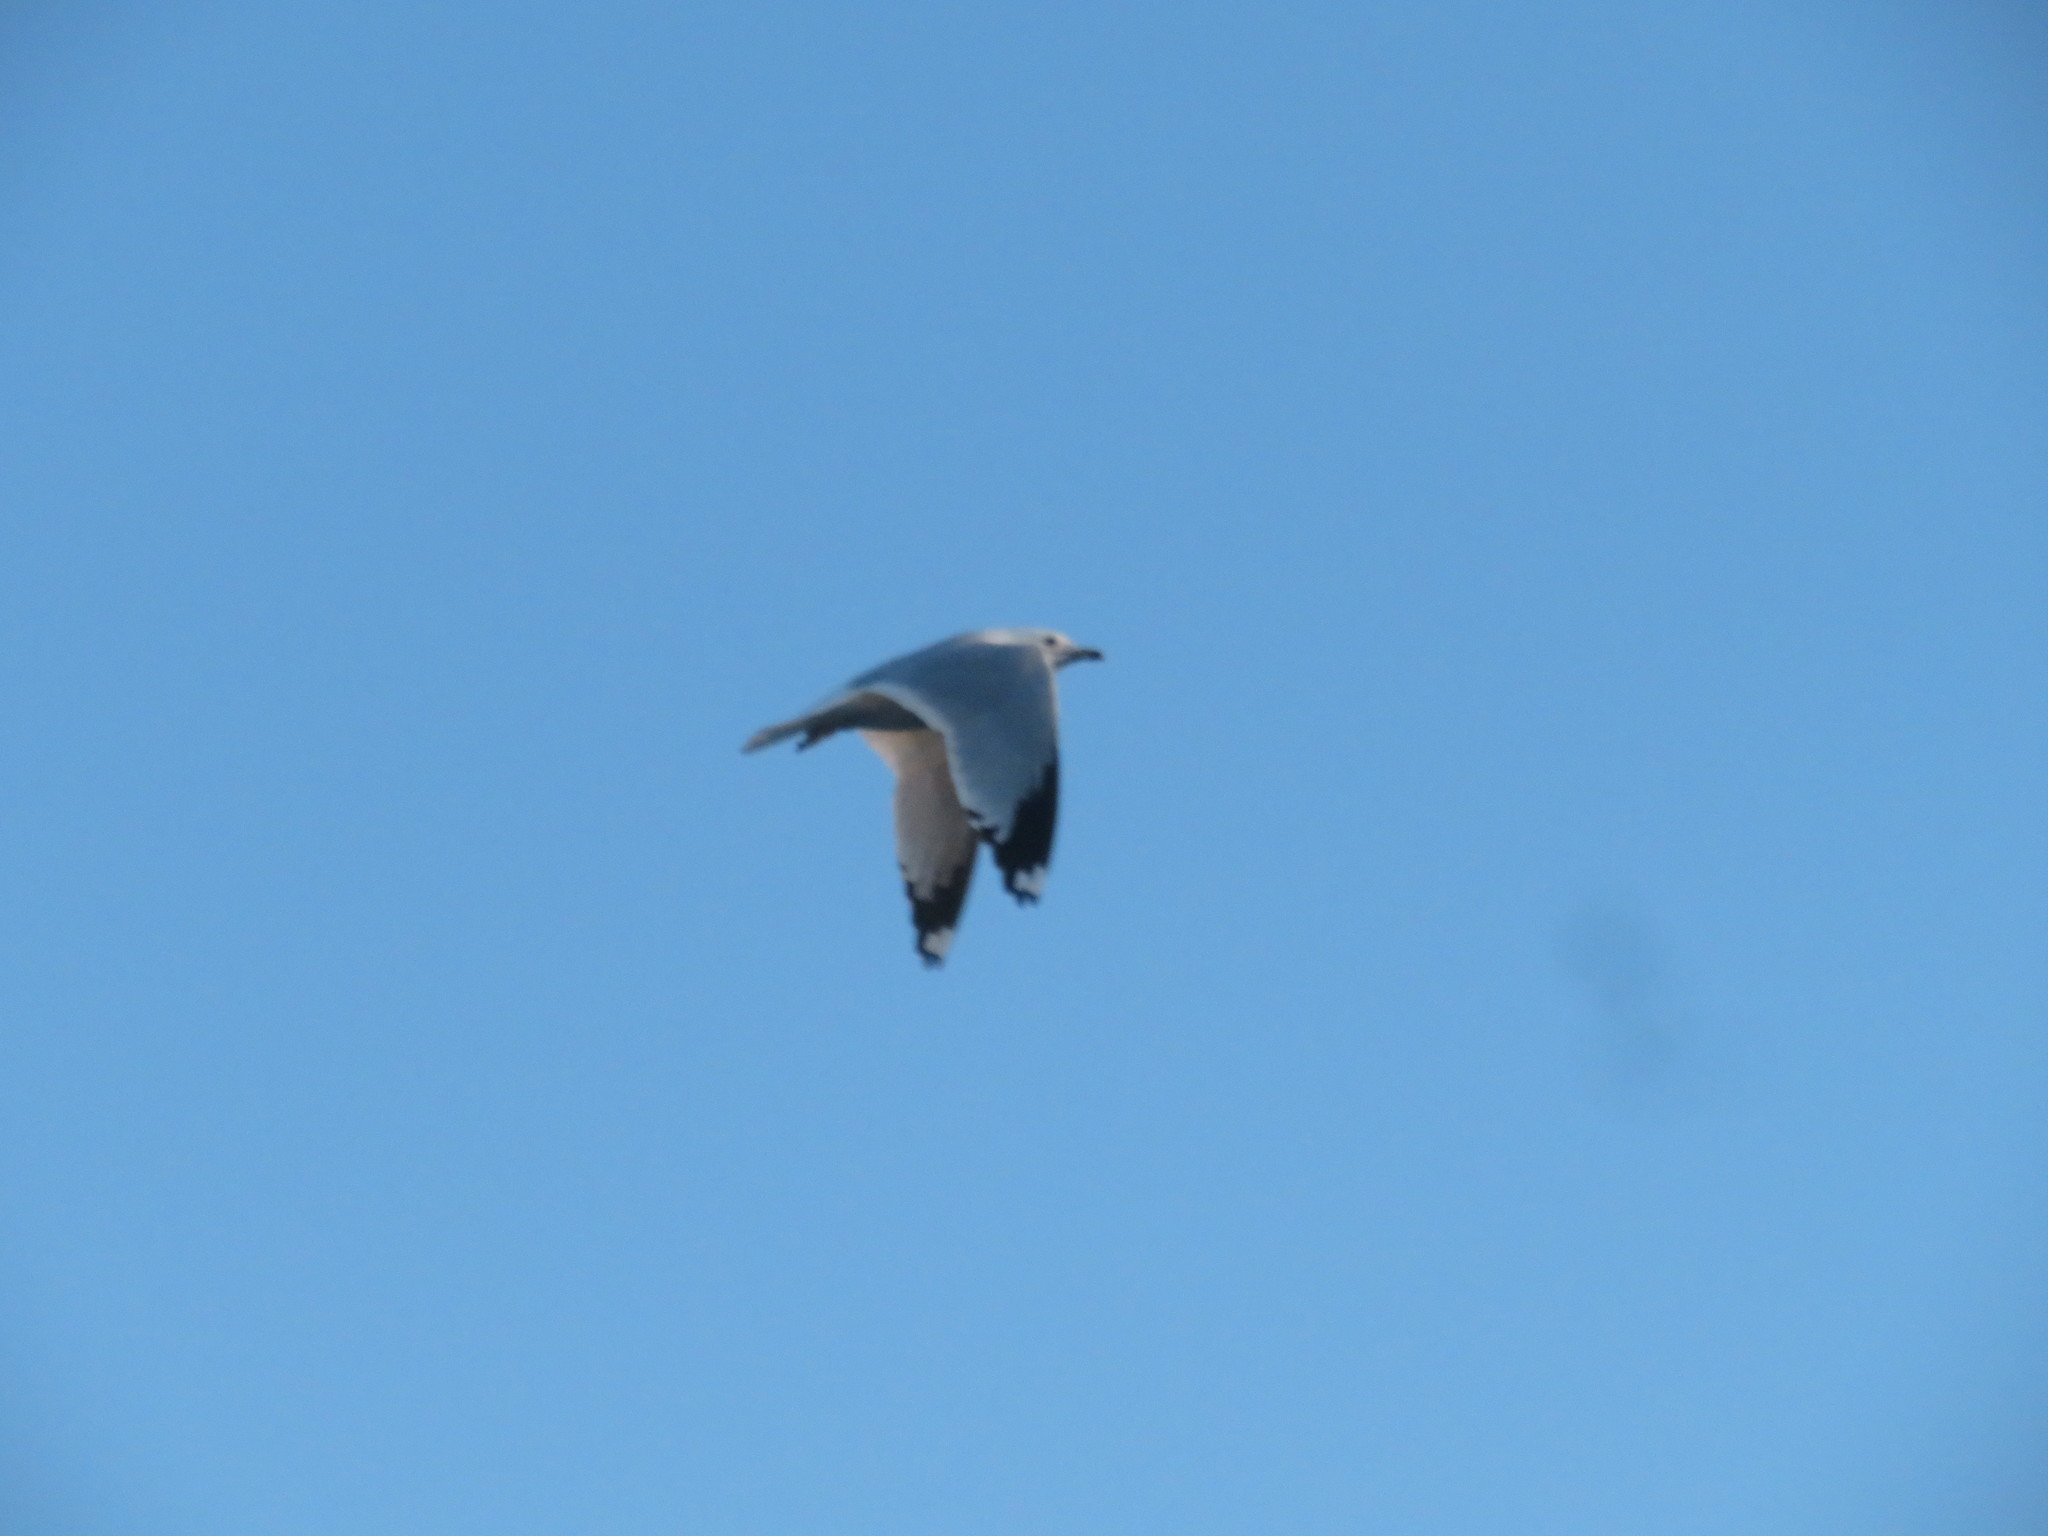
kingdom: Animalia
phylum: Chordata
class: Aves
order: Charadriiformes
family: Laridae
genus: Larus
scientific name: Larus delawarensis
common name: Ring-billed gull
